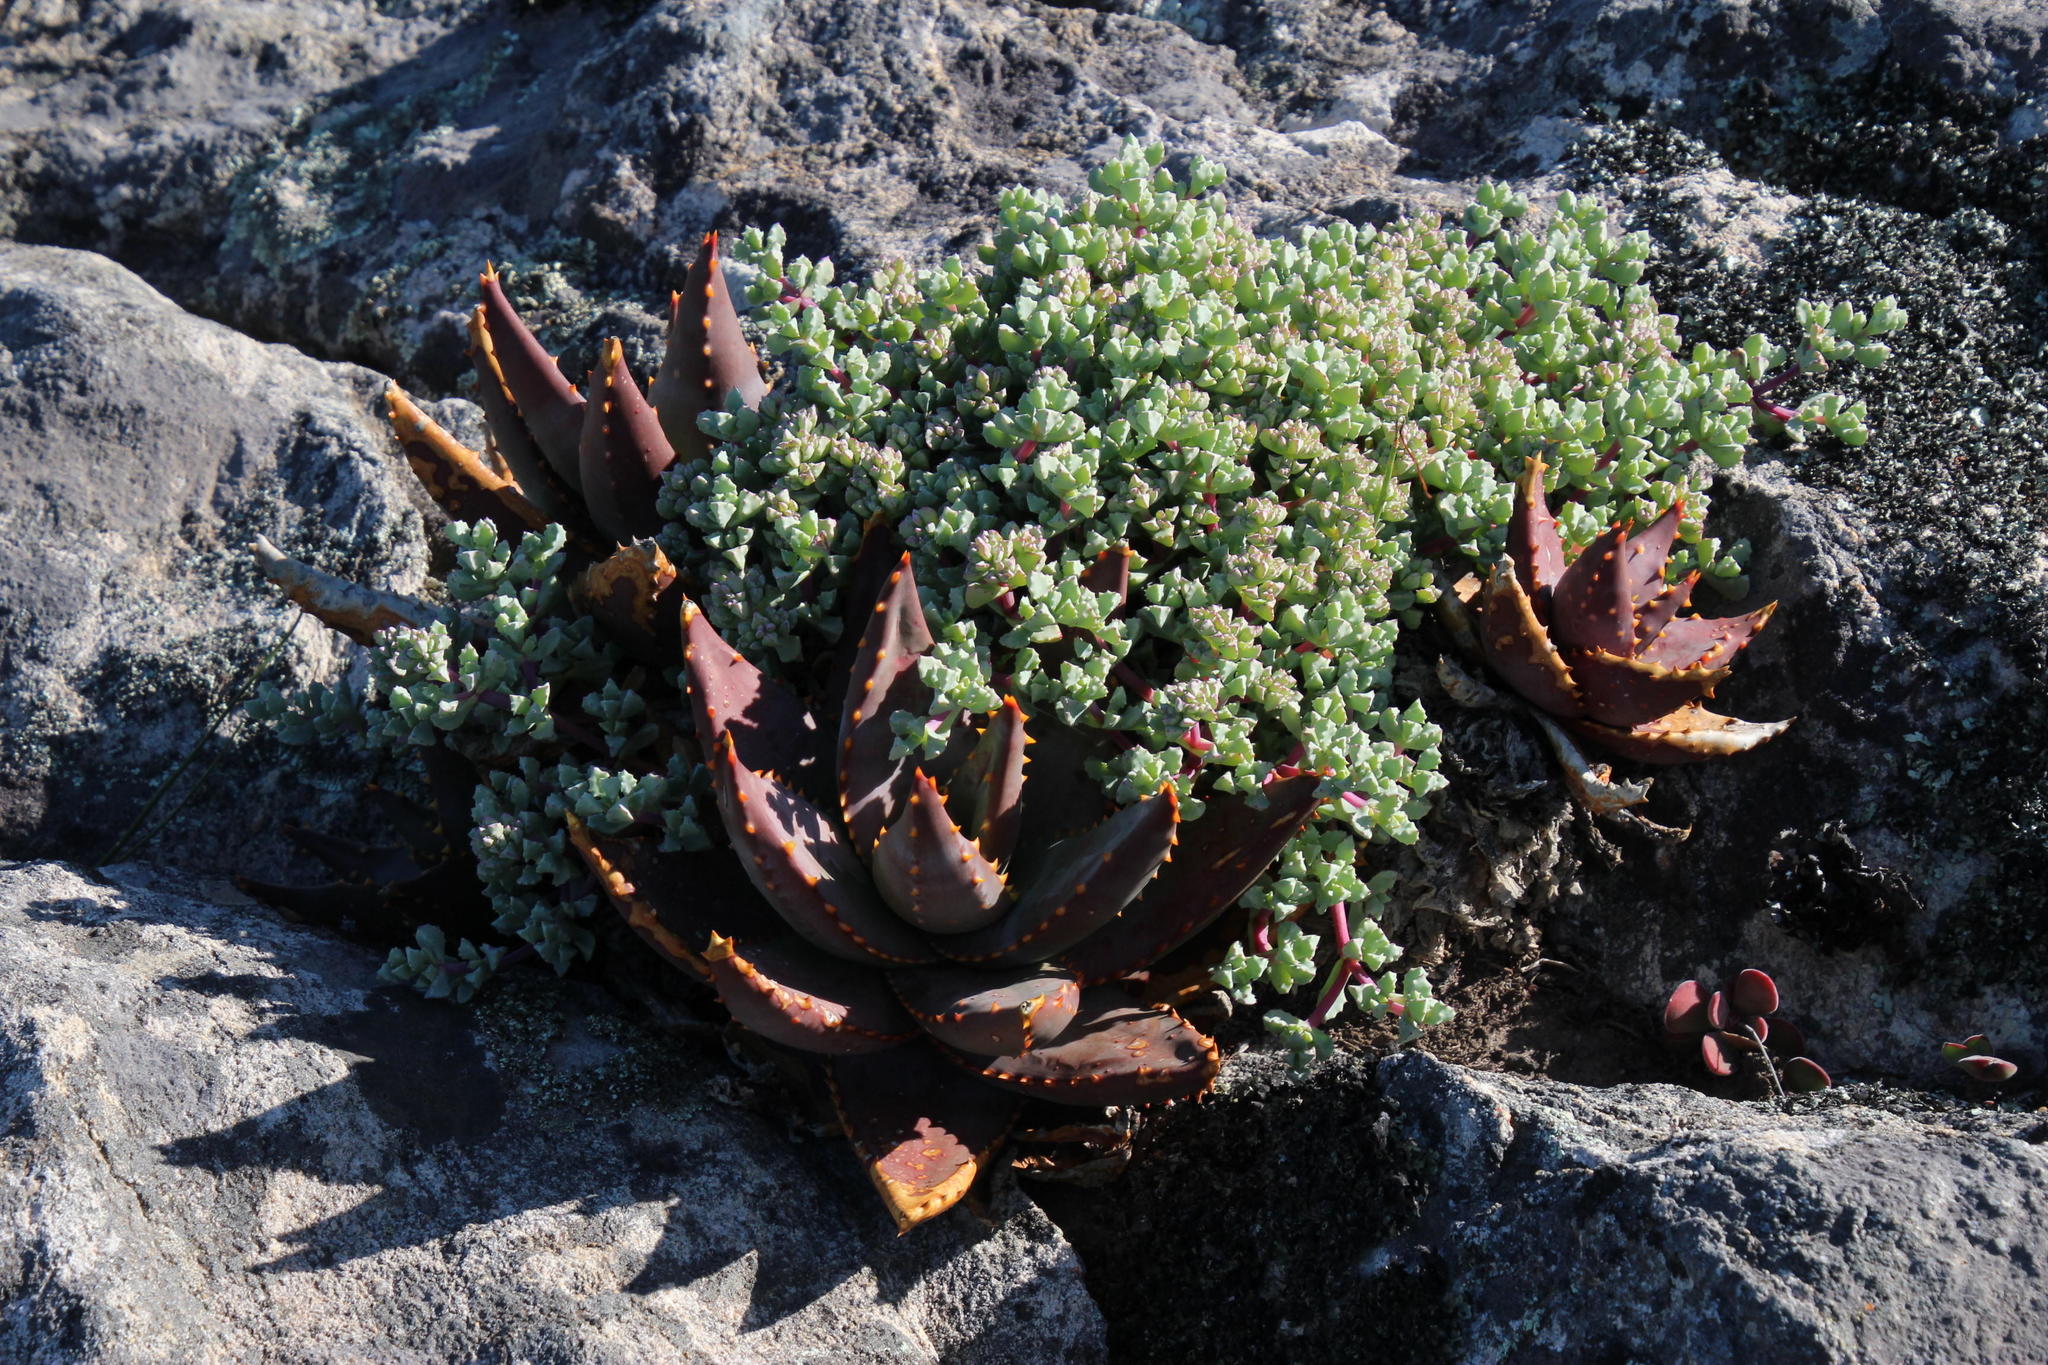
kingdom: Plantae
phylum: Tracheophyta
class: Magnoliopsida
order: Caryophyllales
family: Aizoaceae
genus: Oscularia
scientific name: Oscularia deltoides
